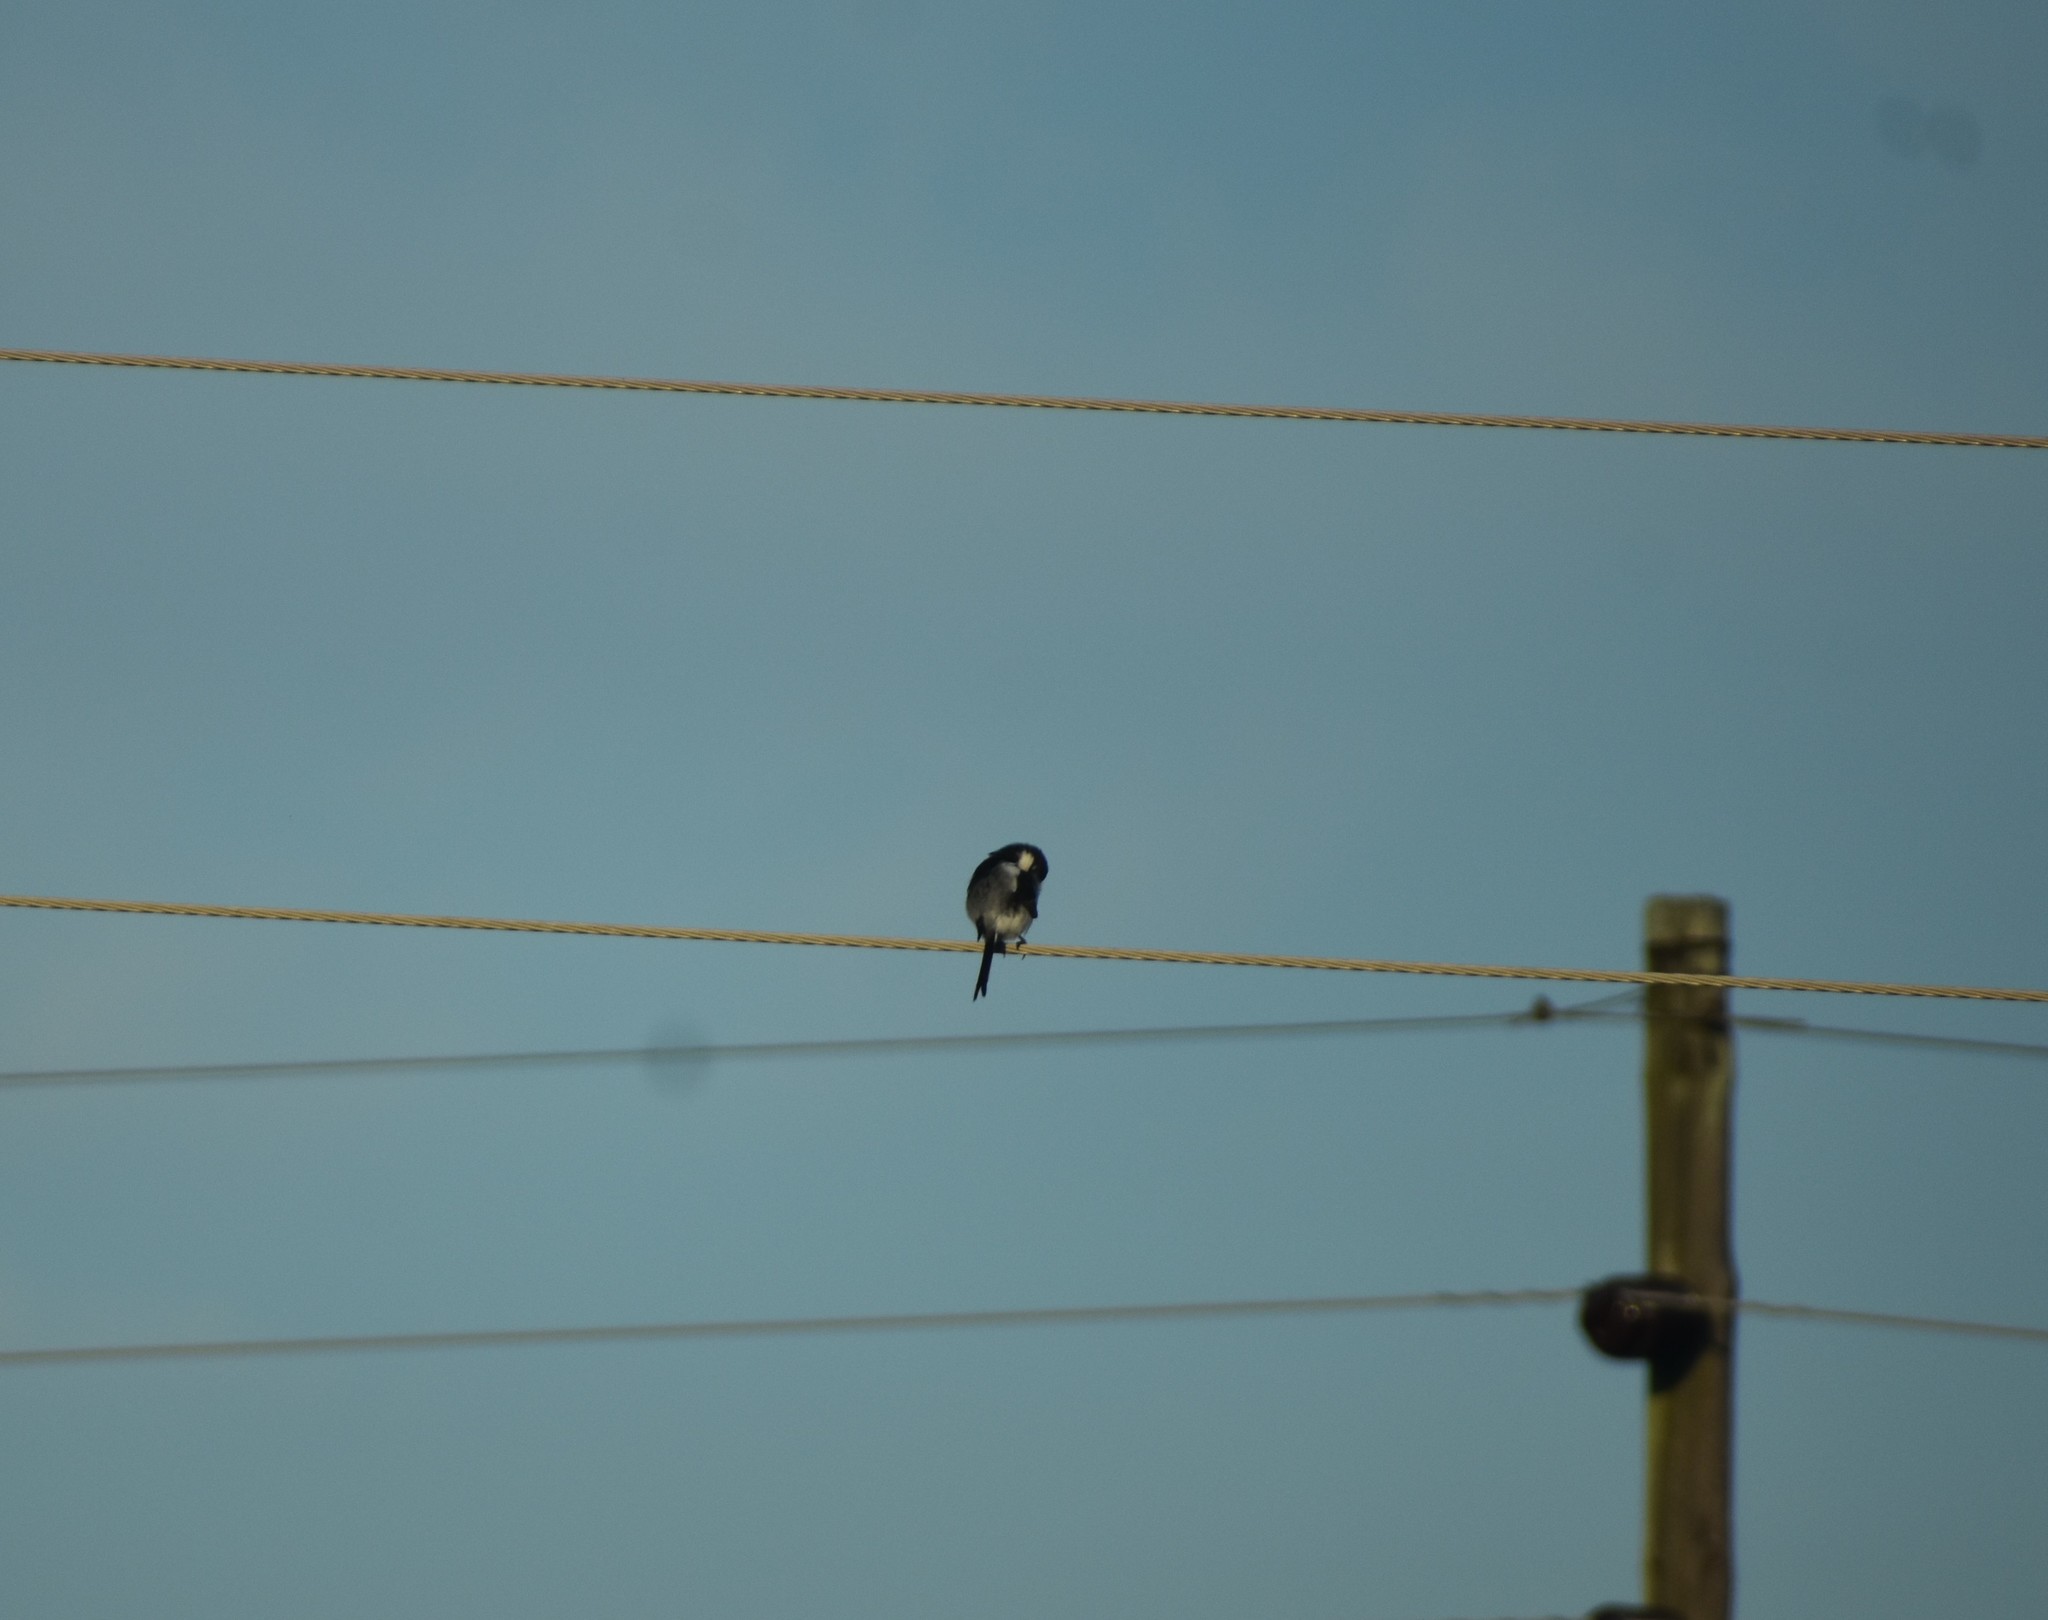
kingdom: Animalia
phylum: Chordata
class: Aves
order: Passeriformes
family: Laniidae
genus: Lanius
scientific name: Lanius collaris
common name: Southern fiscal
